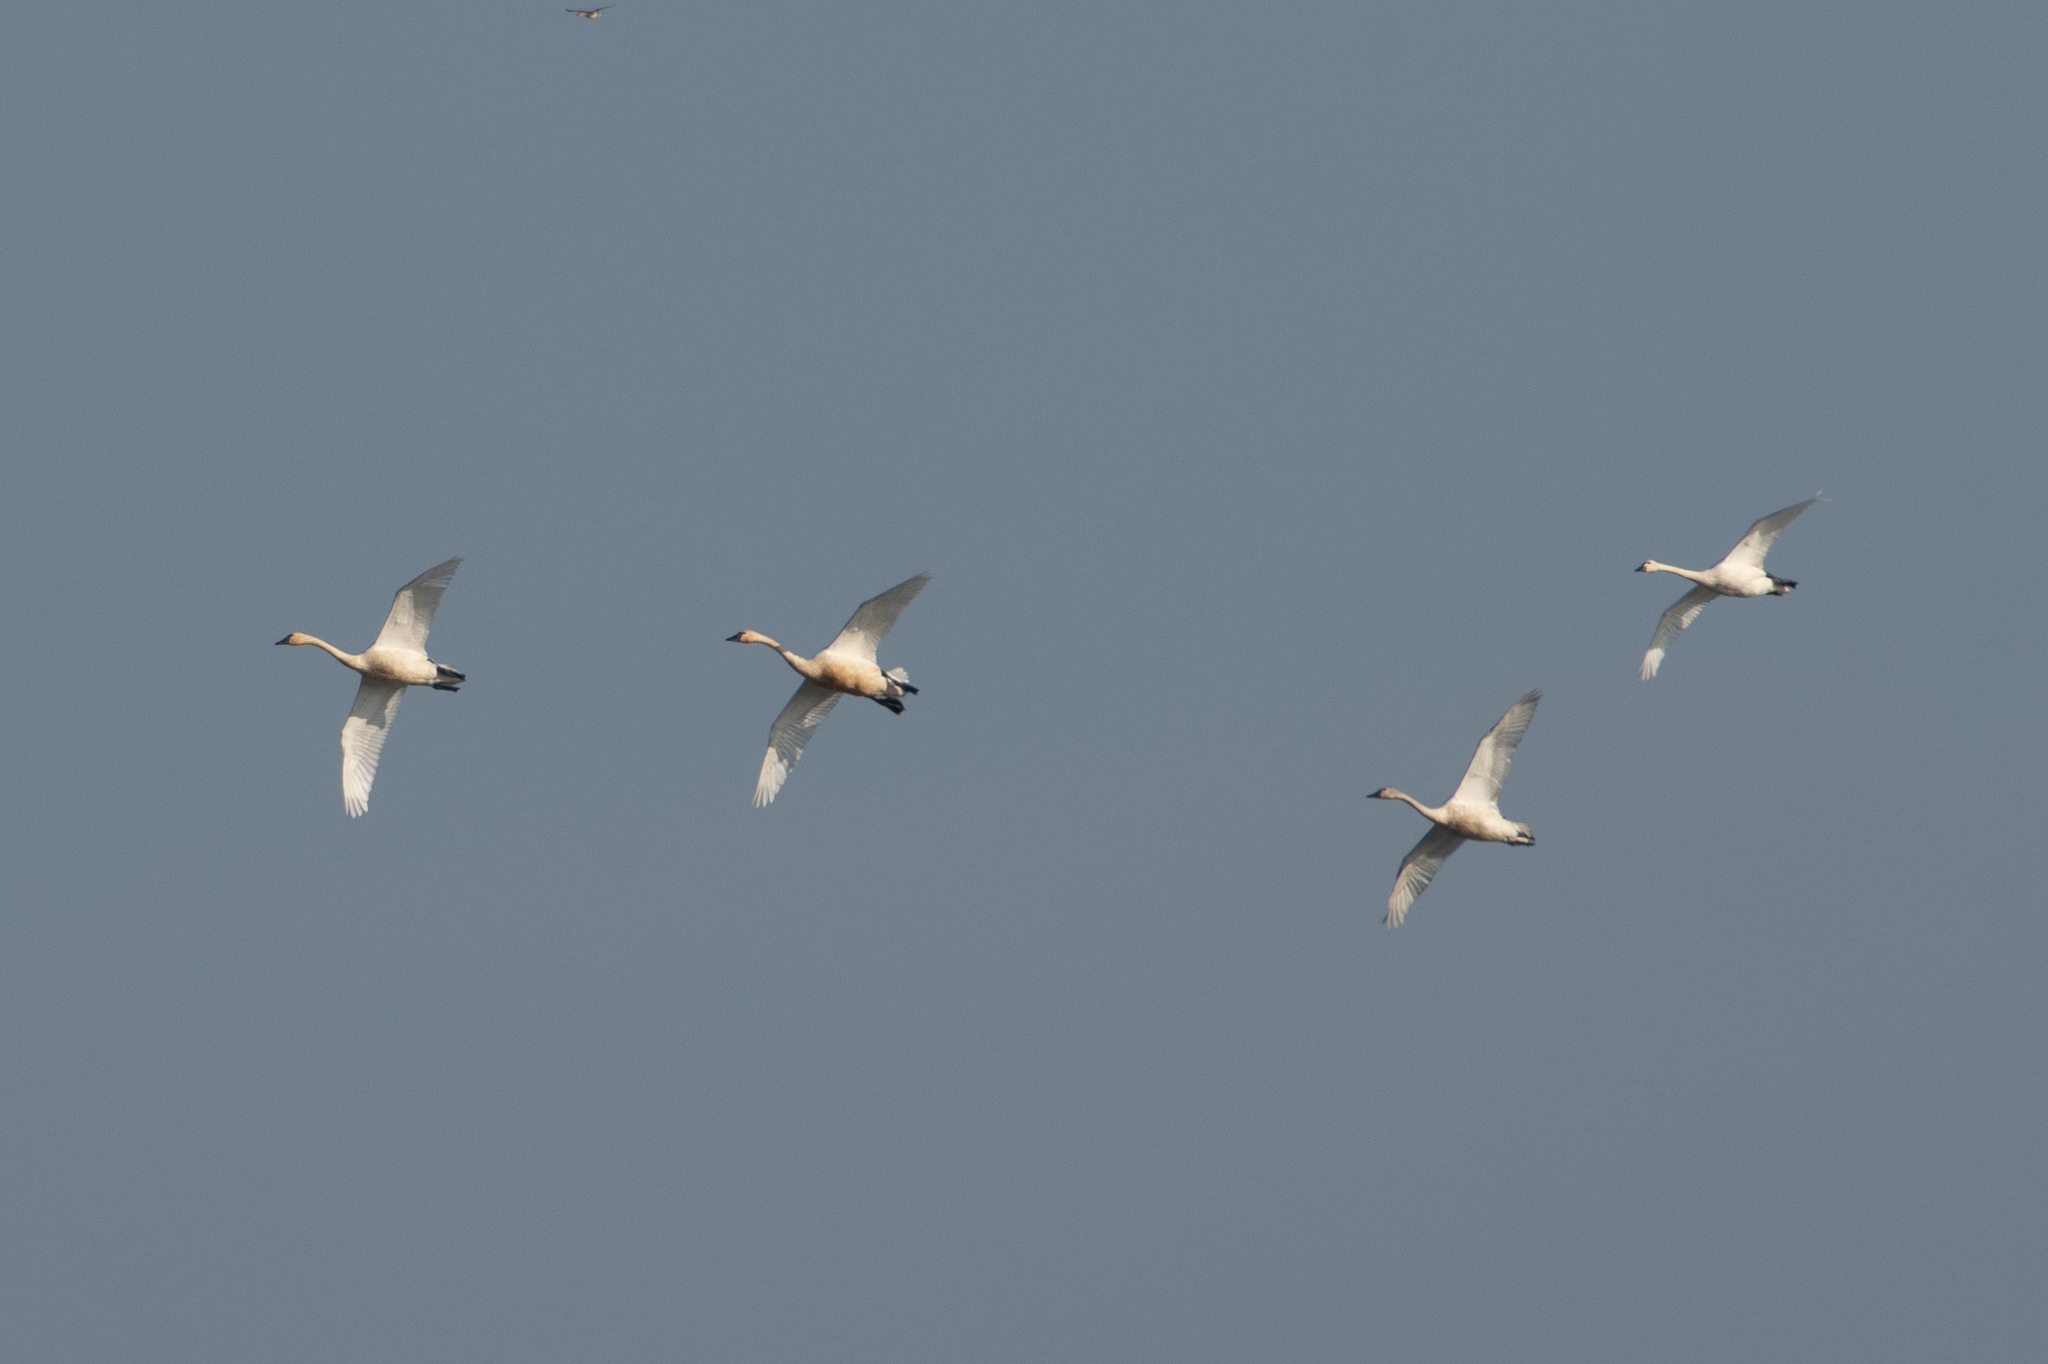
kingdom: Animalia
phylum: Chordata
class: Aves
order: Anseriformes
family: Anatidae
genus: Cygnus
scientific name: Cygnus columbianus
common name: Tundra swan
